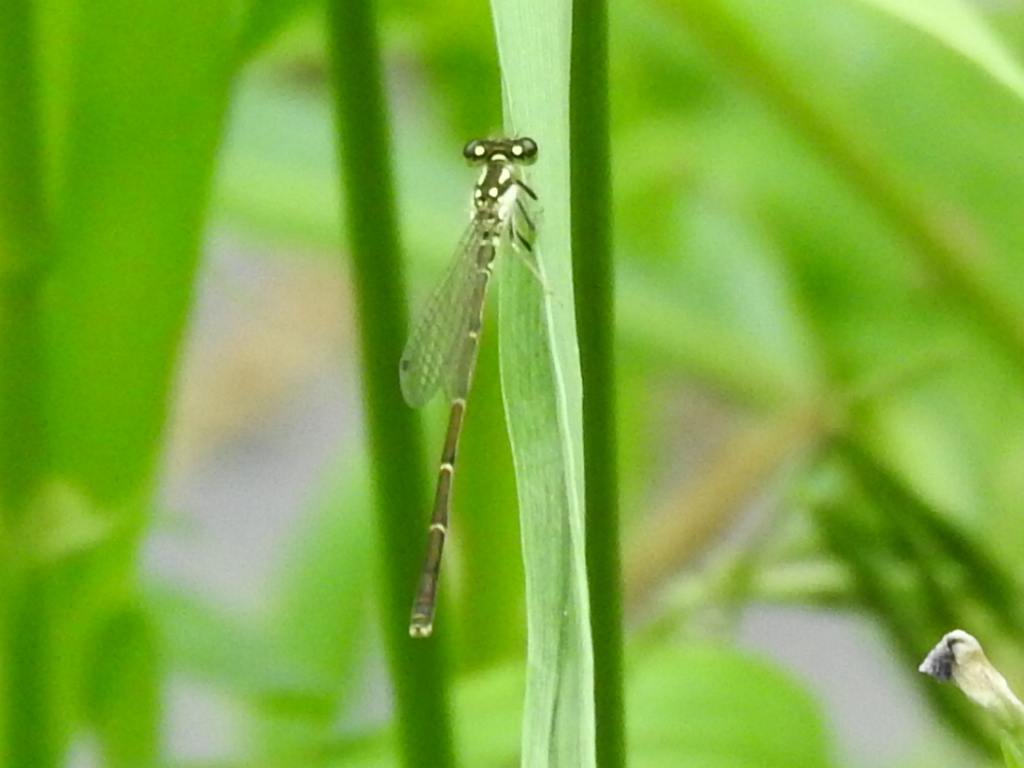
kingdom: Animalia
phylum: Arthropoda
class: Insecta
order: Odonata
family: Coenagrionidae
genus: Ischnura
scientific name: Ischnura posita
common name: Fragile forktail
